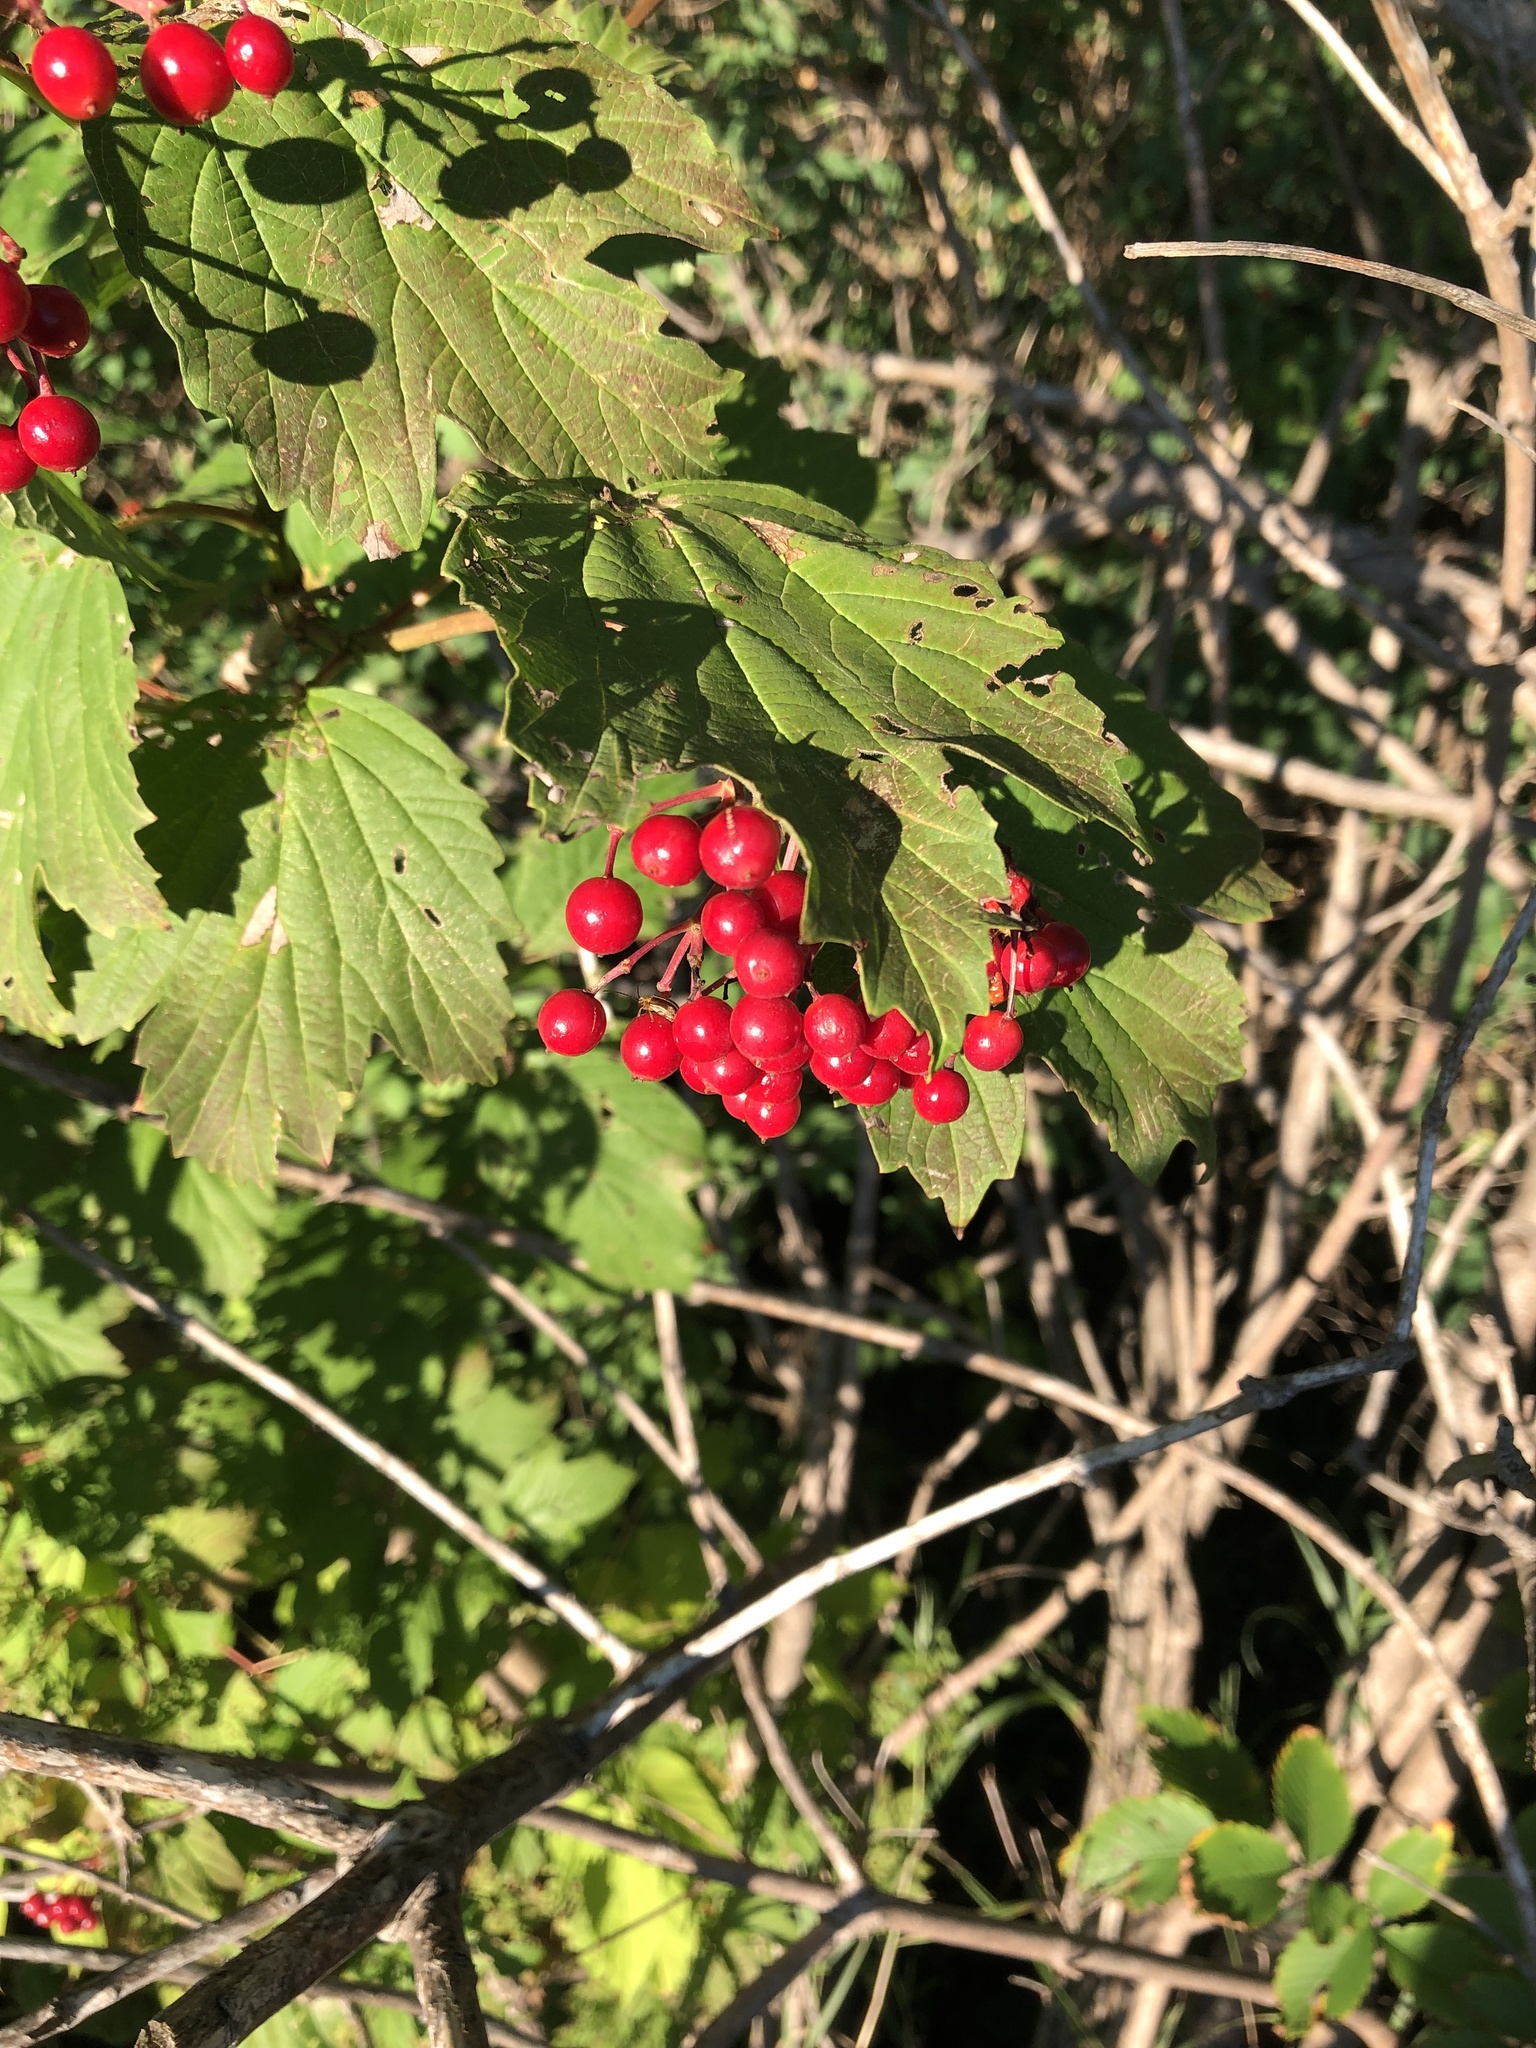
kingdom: Plantae
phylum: Tracheophyta
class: Magnoliopsida
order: Dipsacales
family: Viburnaceae
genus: Viburnum
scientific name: Viburnum opulus
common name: Guelder-rose
